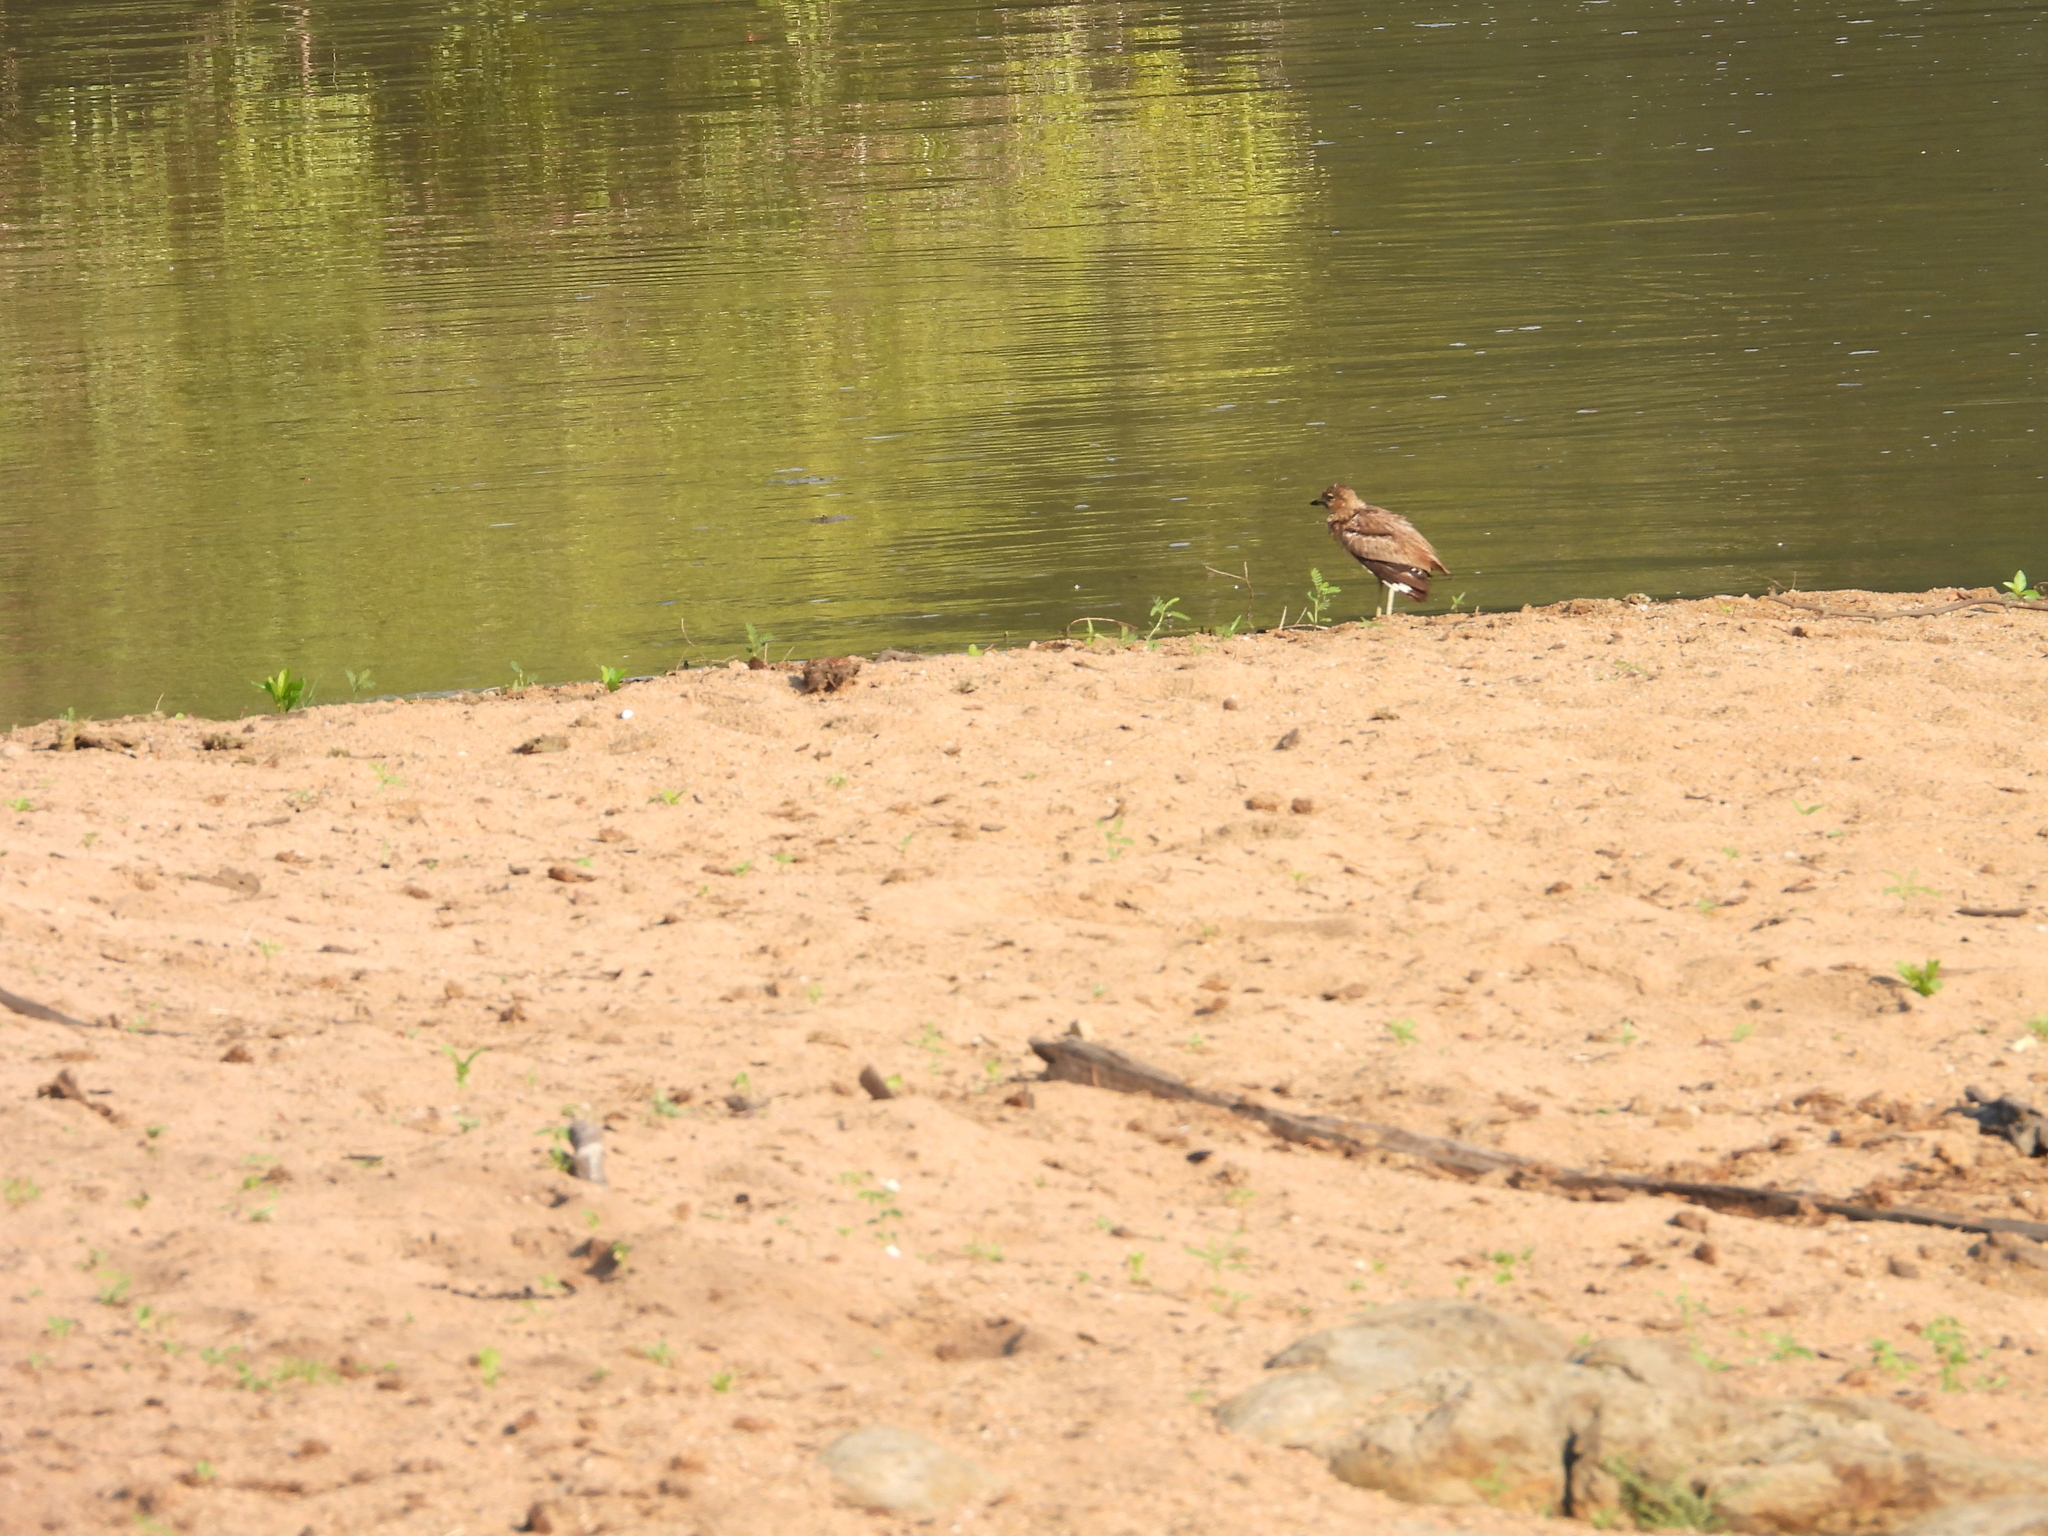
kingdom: Animalia
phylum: Chordata
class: Aves
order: Charadriiformes
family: Burhinidae
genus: Burhinus
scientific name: Burhinus vermiculatus
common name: Water thick-knee
